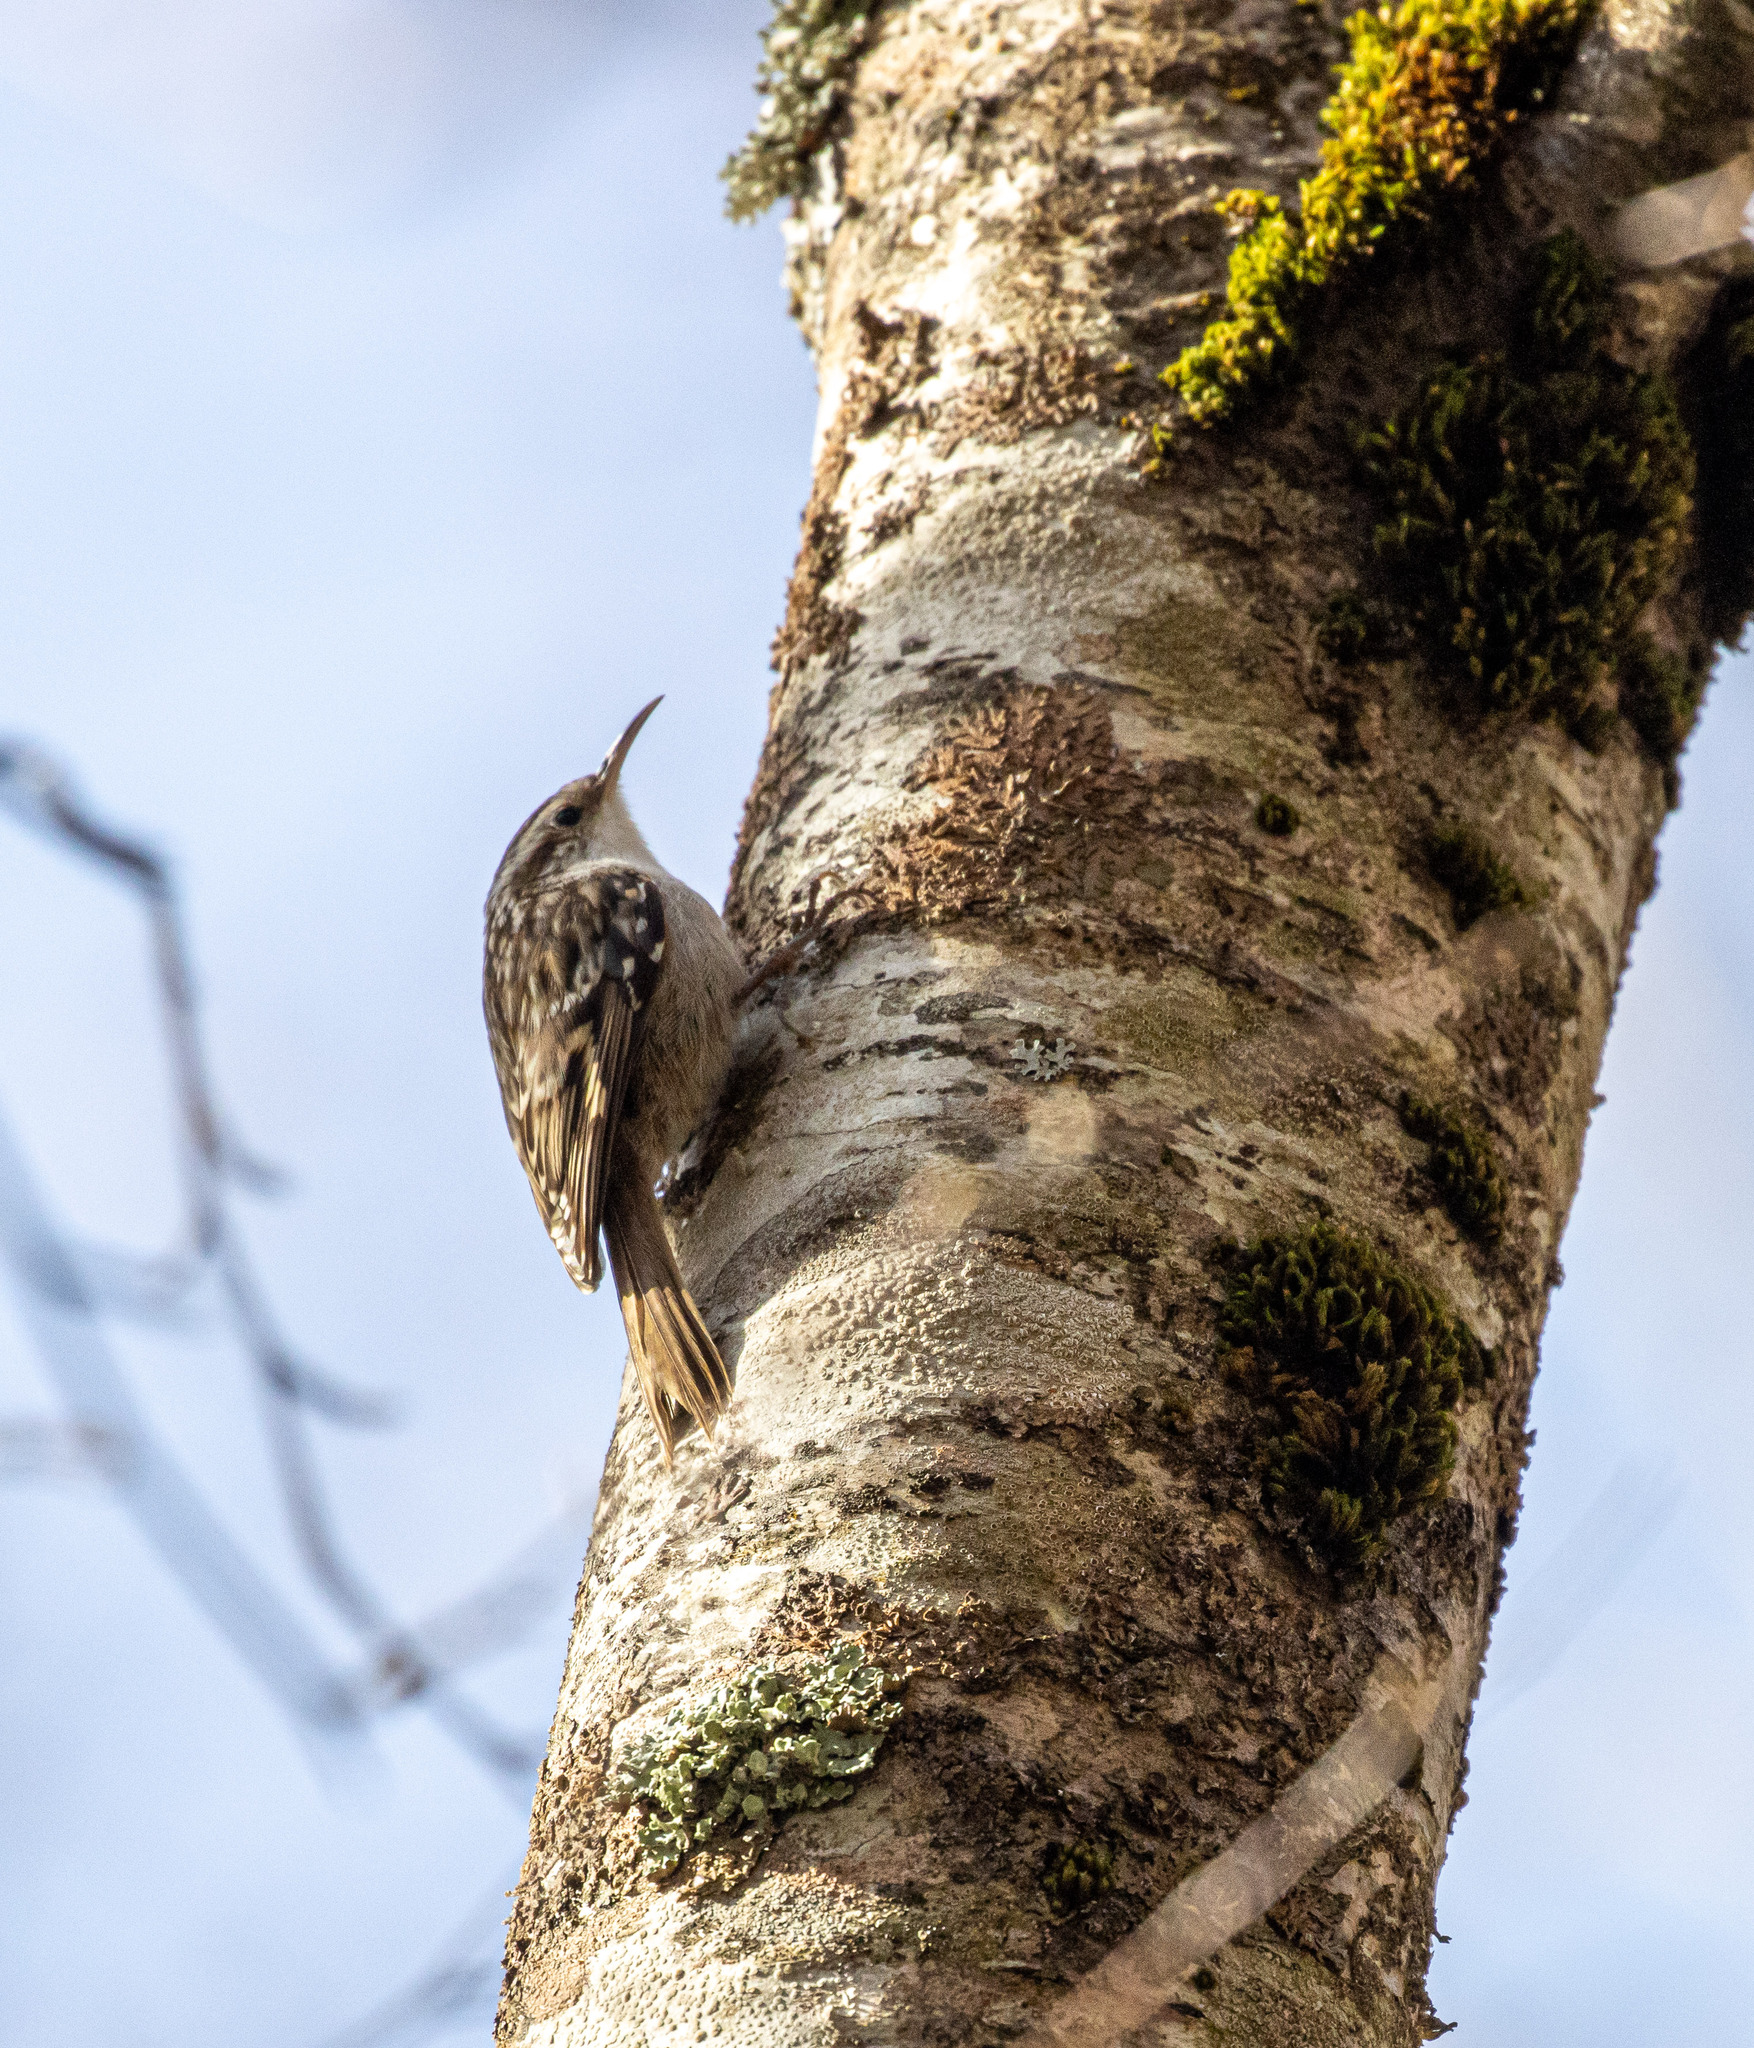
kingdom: Animalia
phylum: Chordata
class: Aves
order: Passeriformes
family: Certhiidae
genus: Certhia
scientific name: Certhia brachydactyla
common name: Short-toed treecreeper
